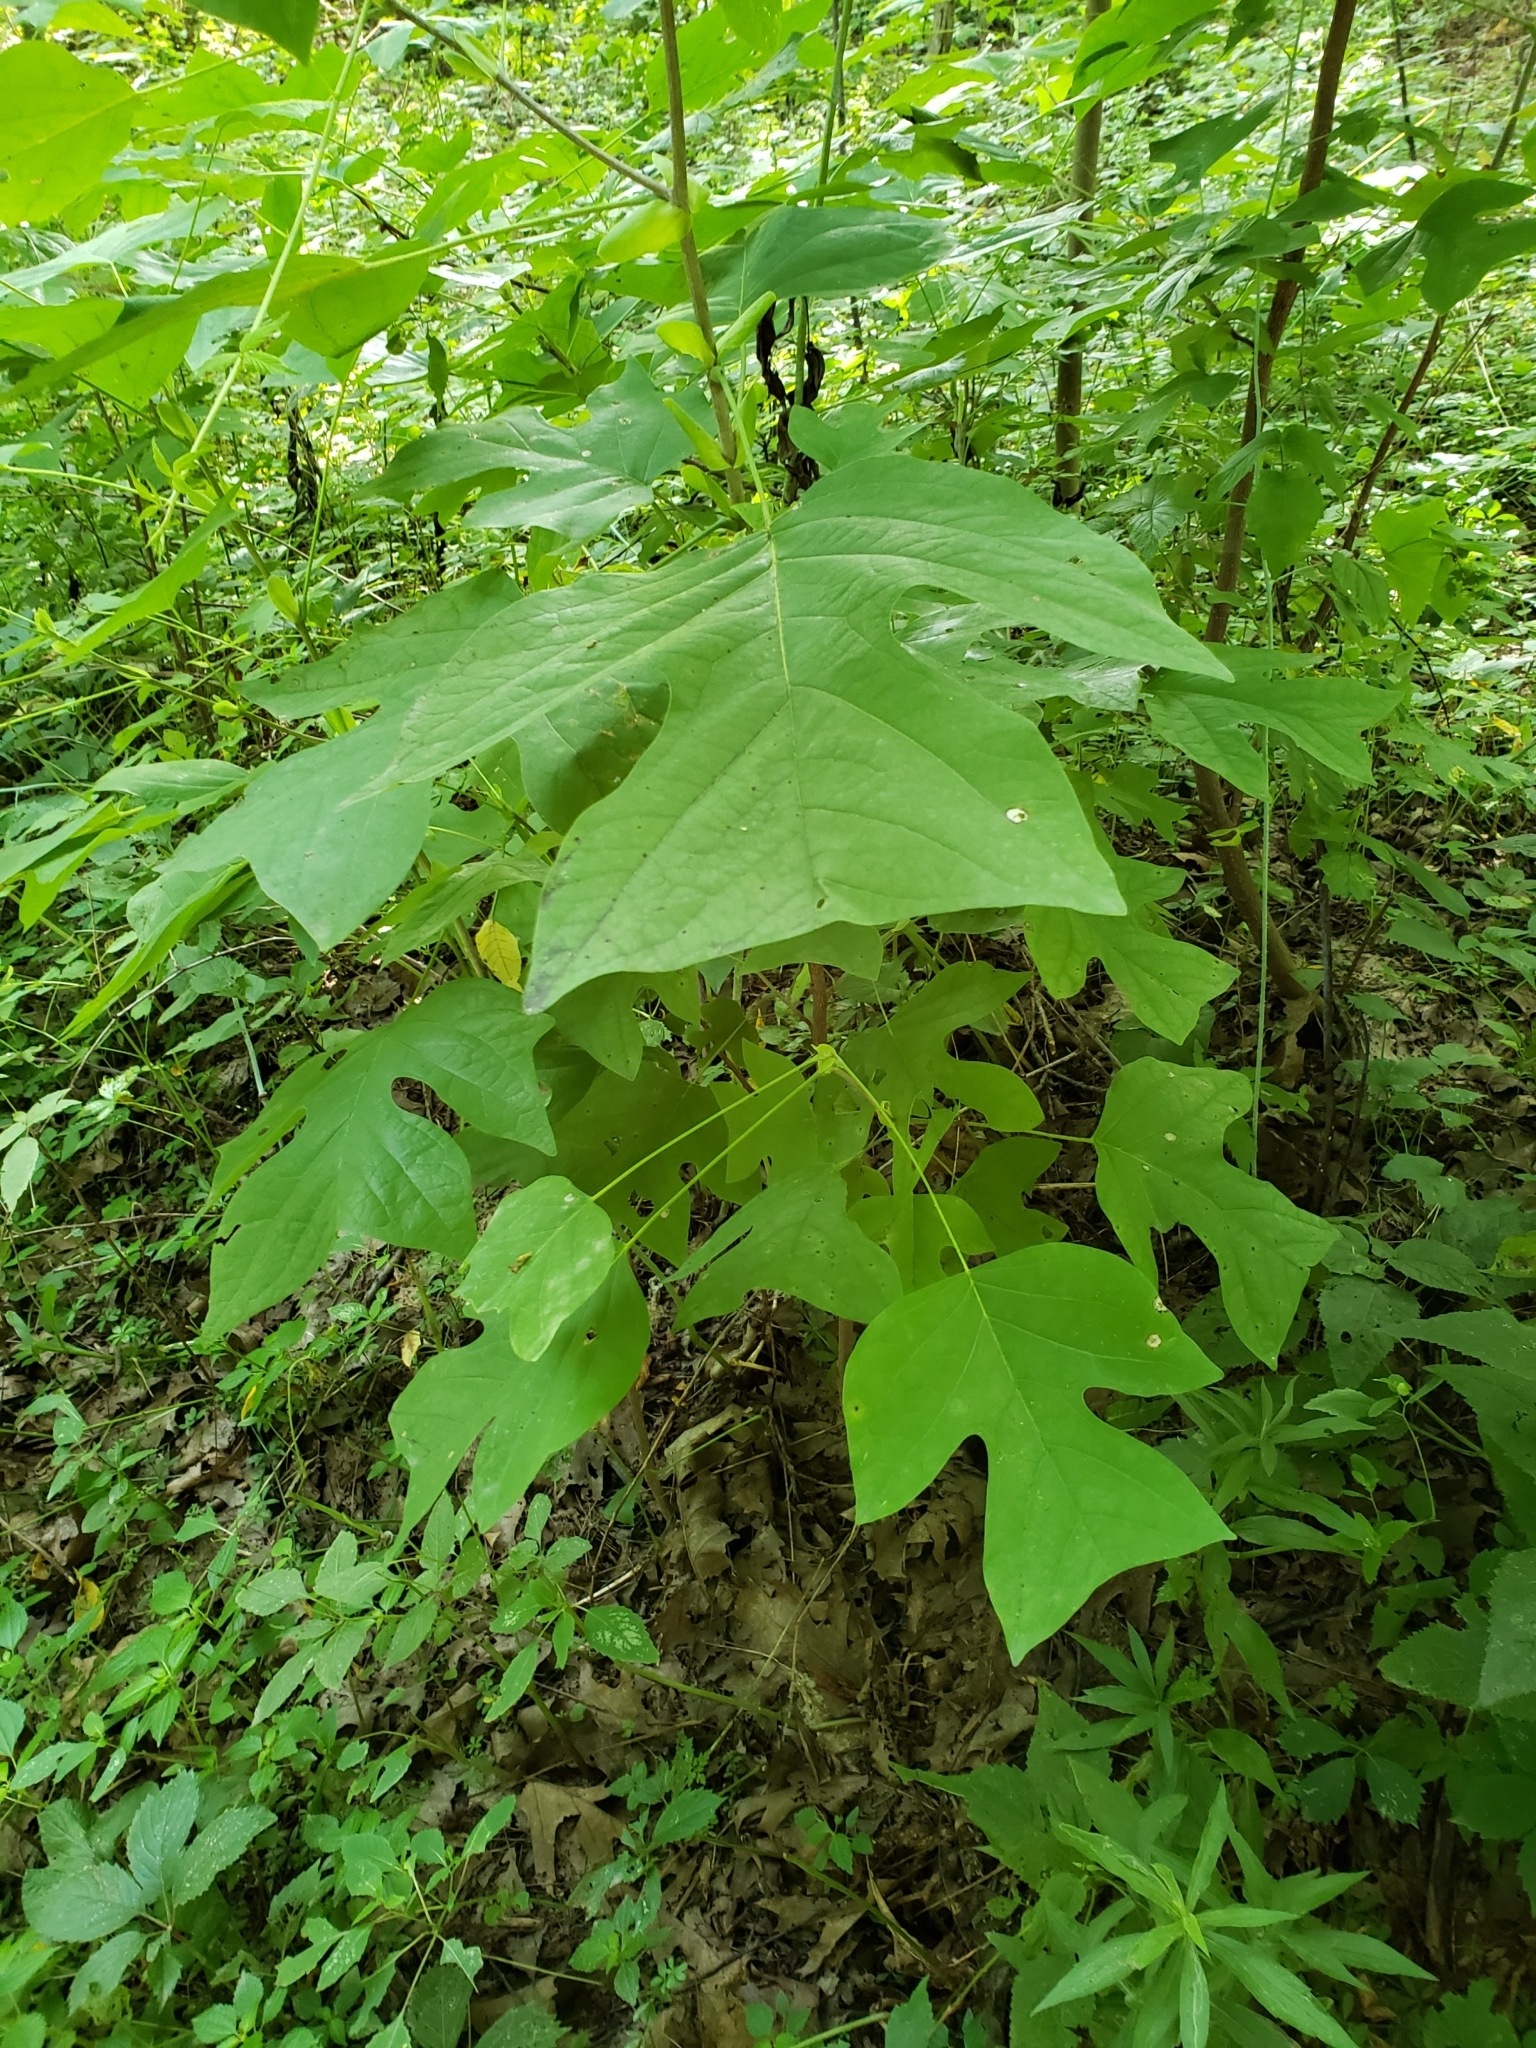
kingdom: Plantae
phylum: Tracheophyta
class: Magnoliopsida
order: Magnoliales
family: Magnoliaceae
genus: Liriodendron
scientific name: Liriodendron tulipifera
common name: Tulip tree
